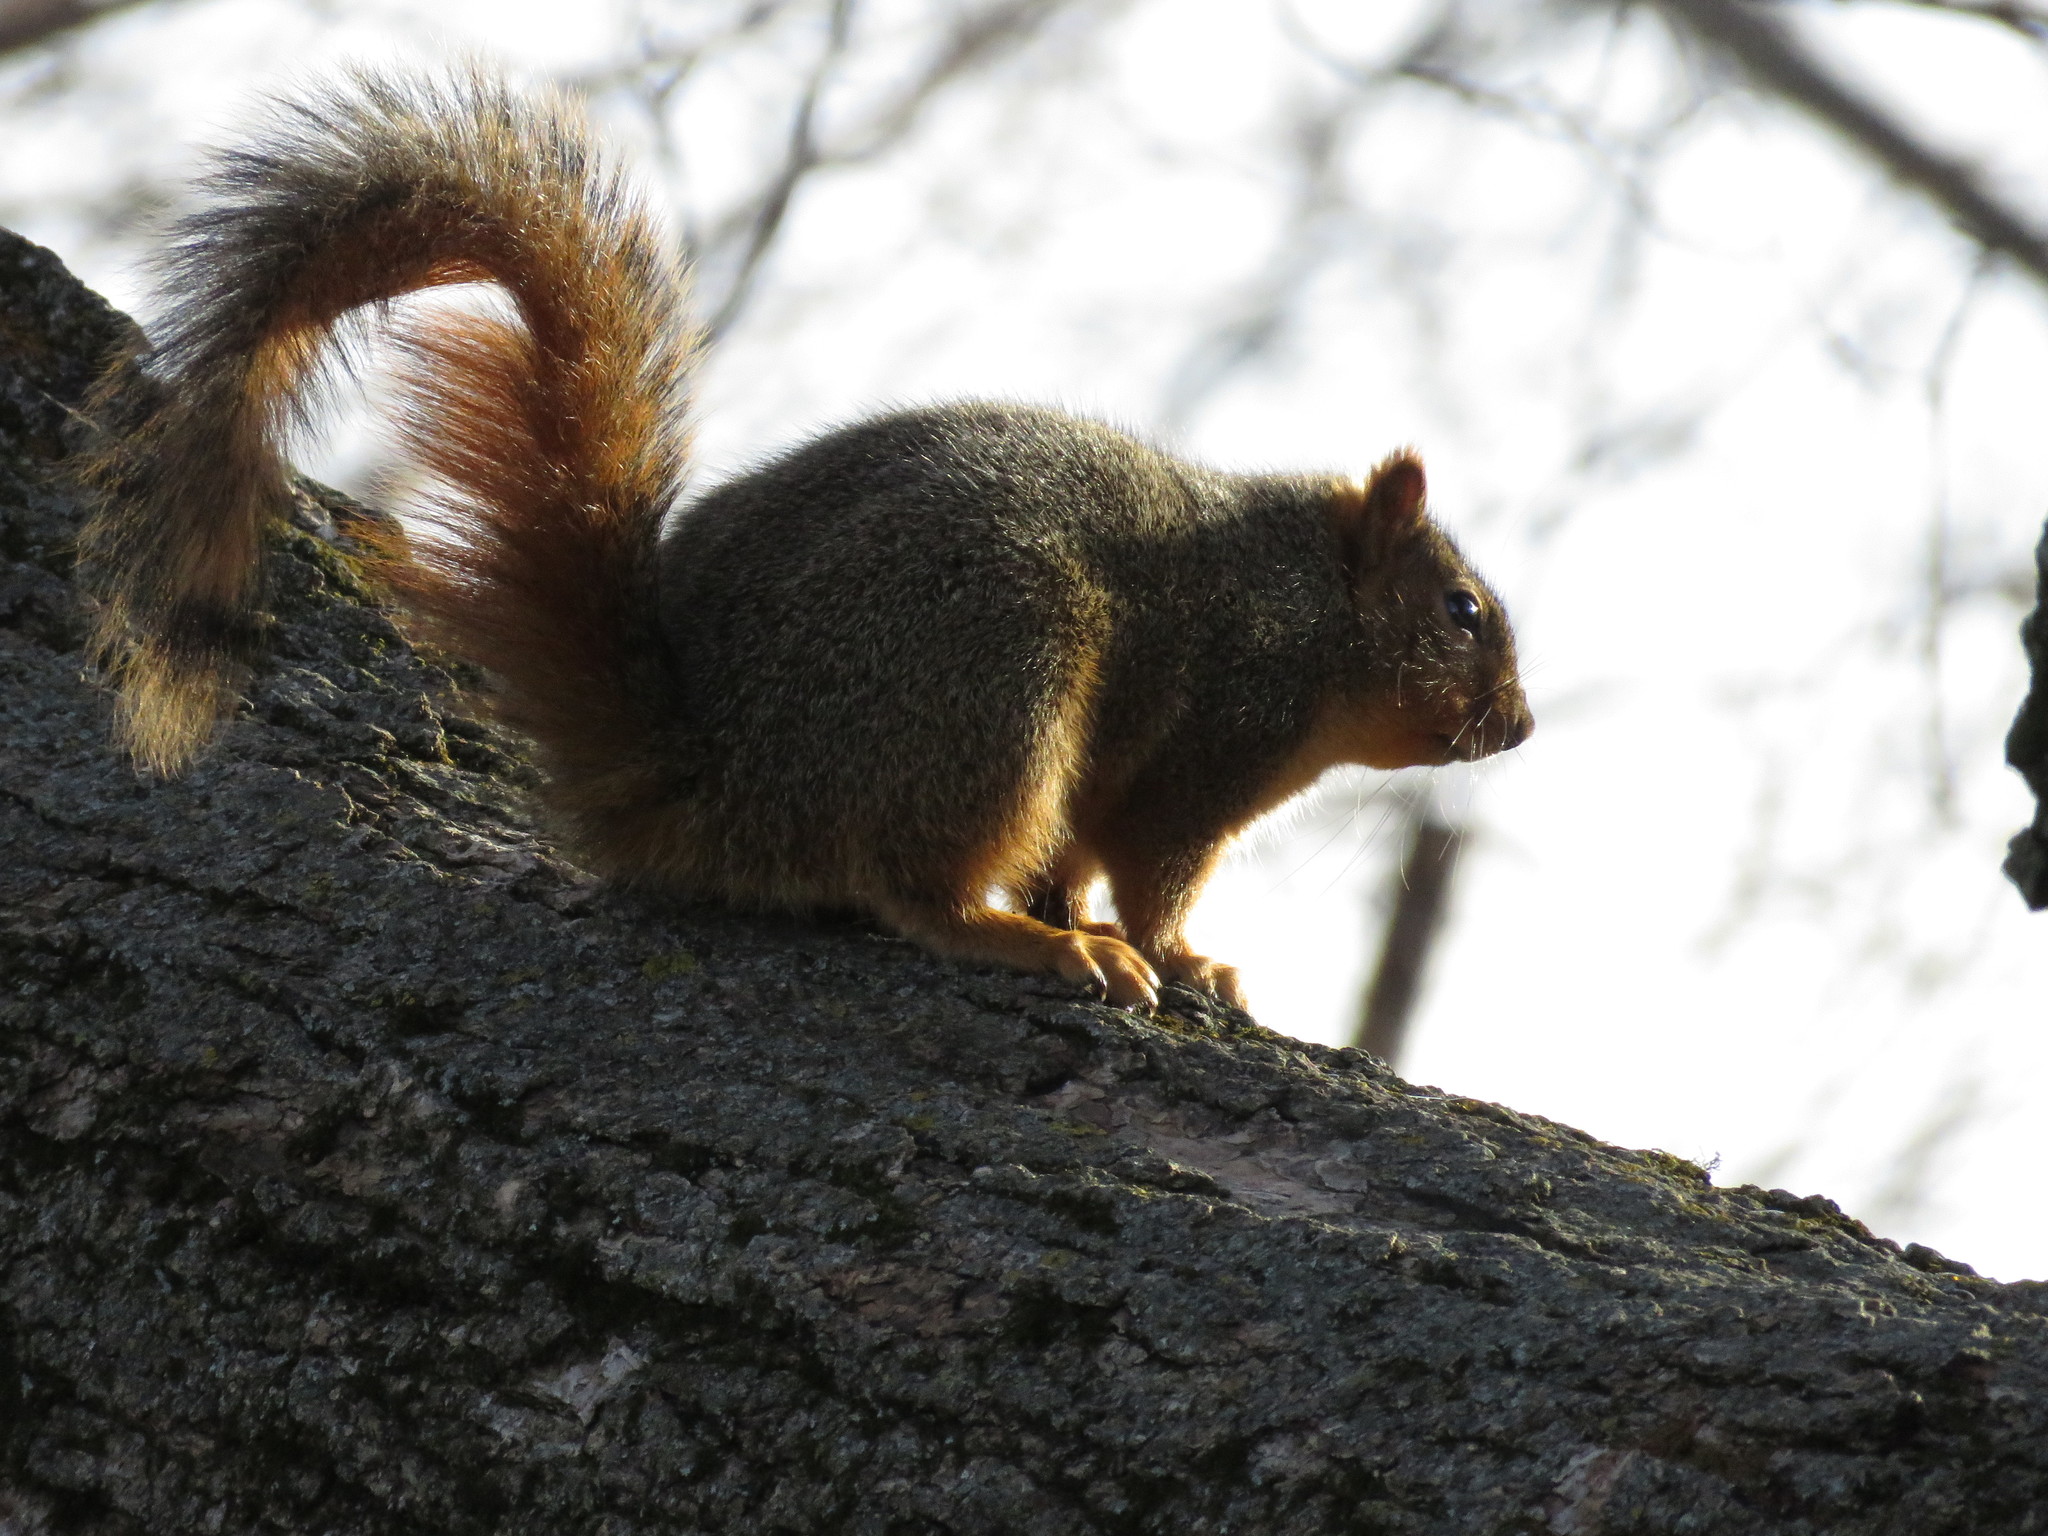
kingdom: Animalia
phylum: Chordata
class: Mammalia
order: Rodentia
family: Sciuridae
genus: Sciurus
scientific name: Sciurus niger
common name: Fox squirrel
